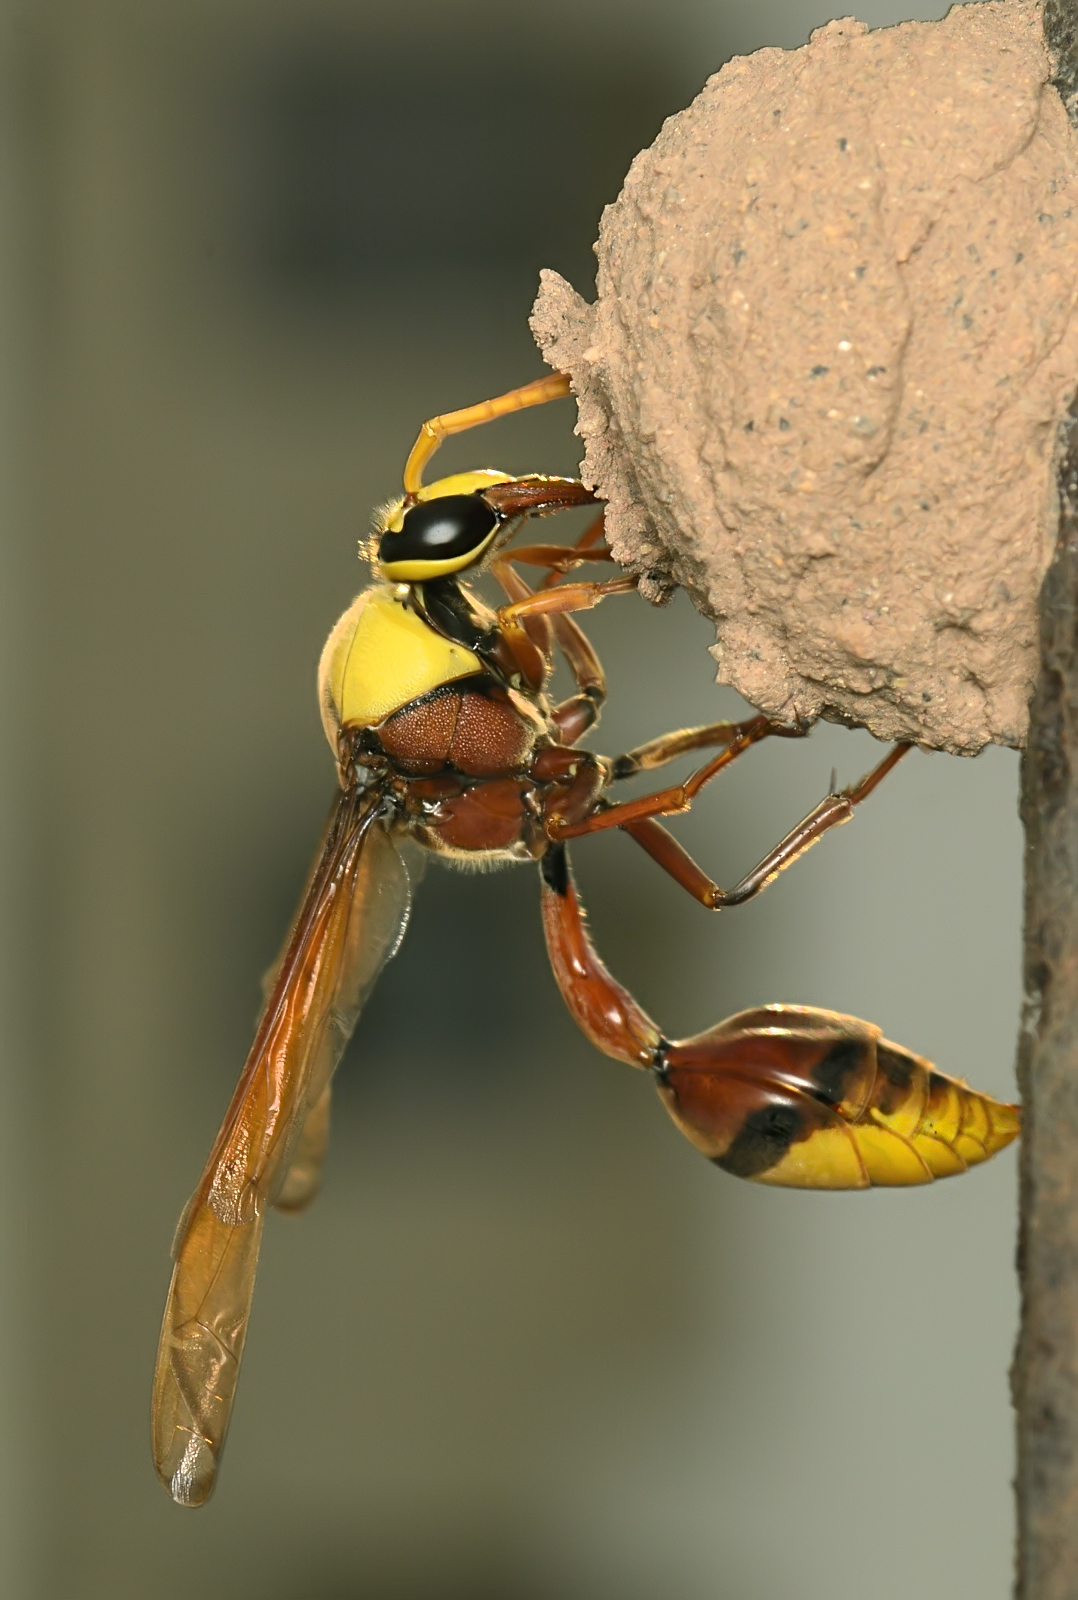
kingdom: Animalia
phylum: Arthropoda
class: Insecta
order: Hymenoptera
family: Eumenidae
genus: Delta
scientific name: Delta pyriforme
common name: Wasp
